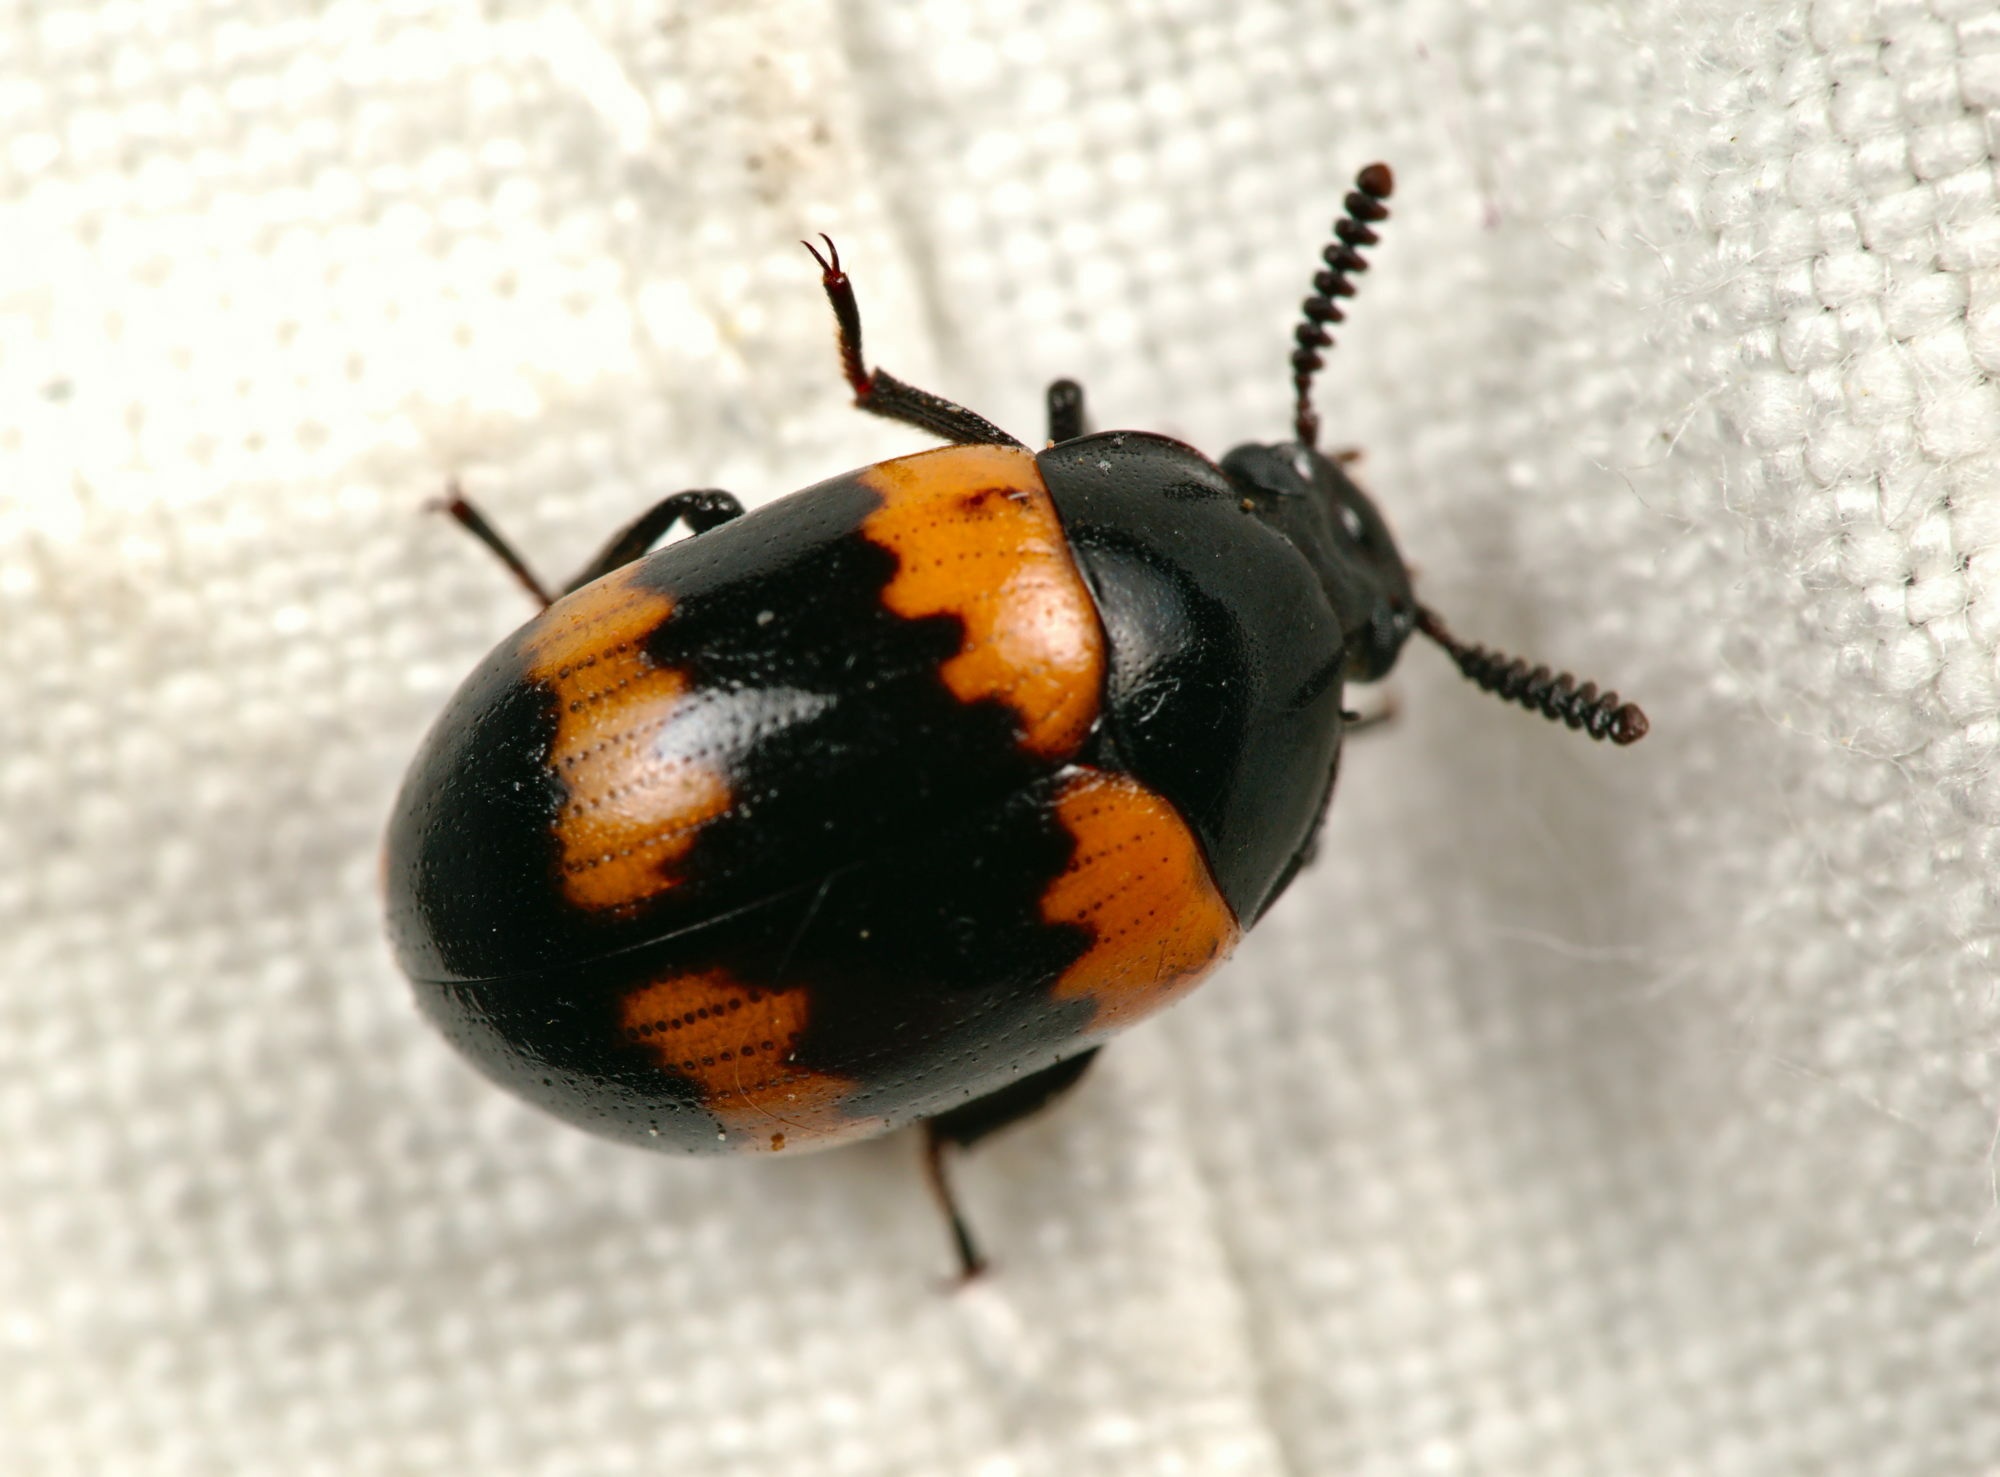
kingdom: Animalia
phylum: Arthropoda
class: Insecta
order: Coleoptera
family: Tenebrionidae
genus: Diaperis
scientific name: Diaperis boleti
